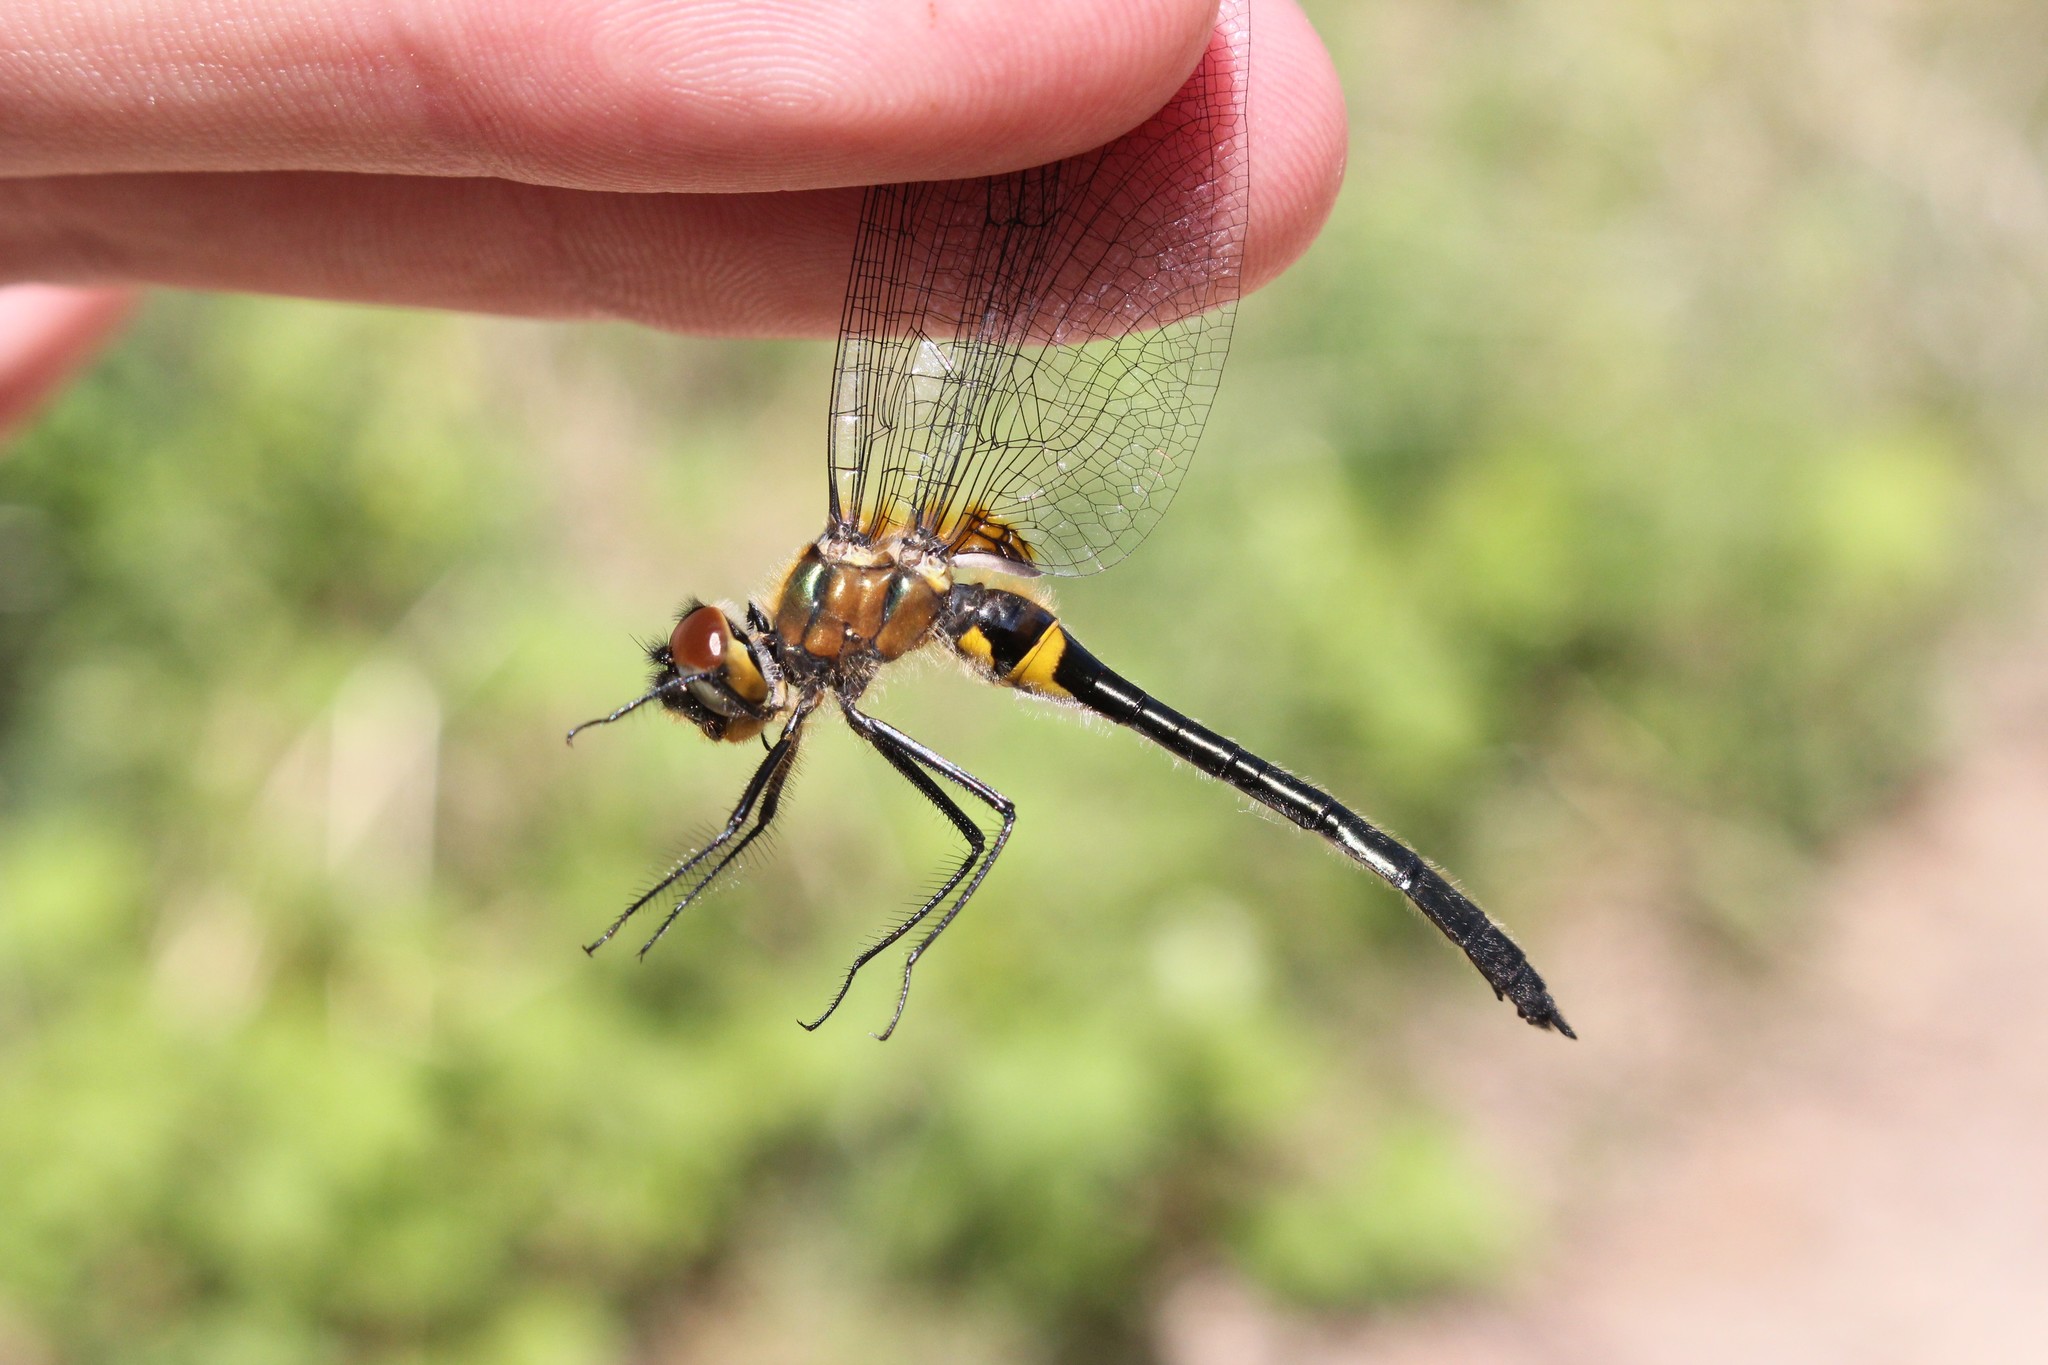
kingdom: Animalia
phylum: Arthropoda
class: Insecta
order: Odonata
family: Corduliidae
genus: Dorocordulia
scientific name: Dorocordulia libera
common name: Racket-tailed emerald
